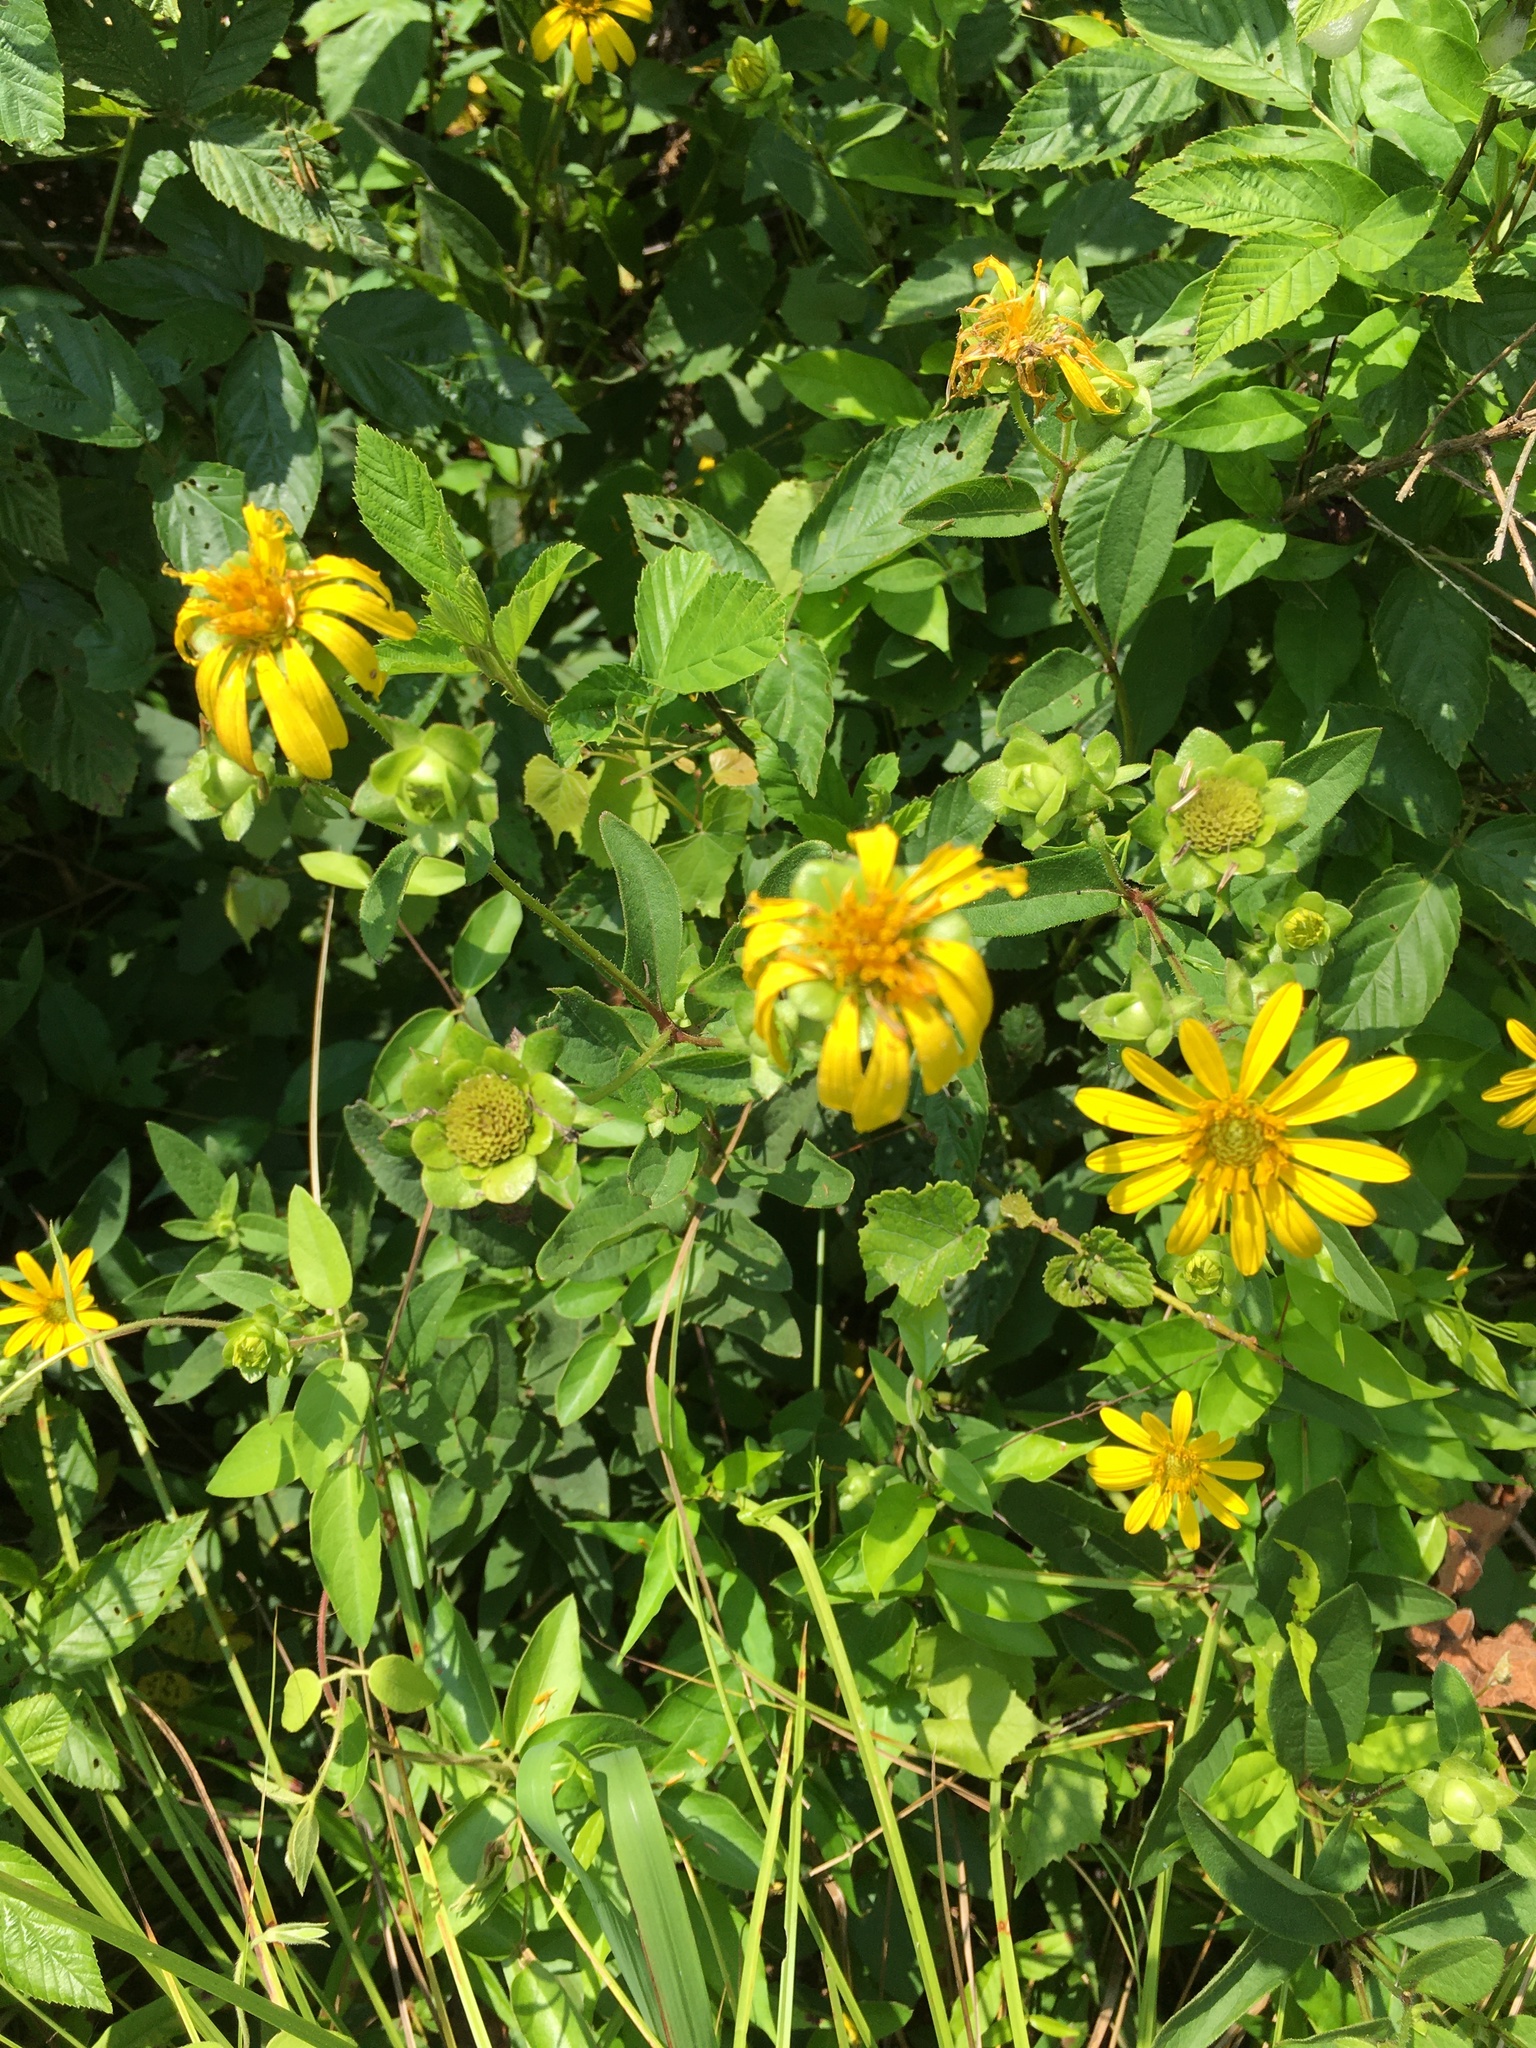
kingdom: Plantae
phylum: Tracheophyta
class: Magnoliopsida
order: Asterales
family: Asteraceae
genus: Silphium
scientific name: Silphium asteriscus
